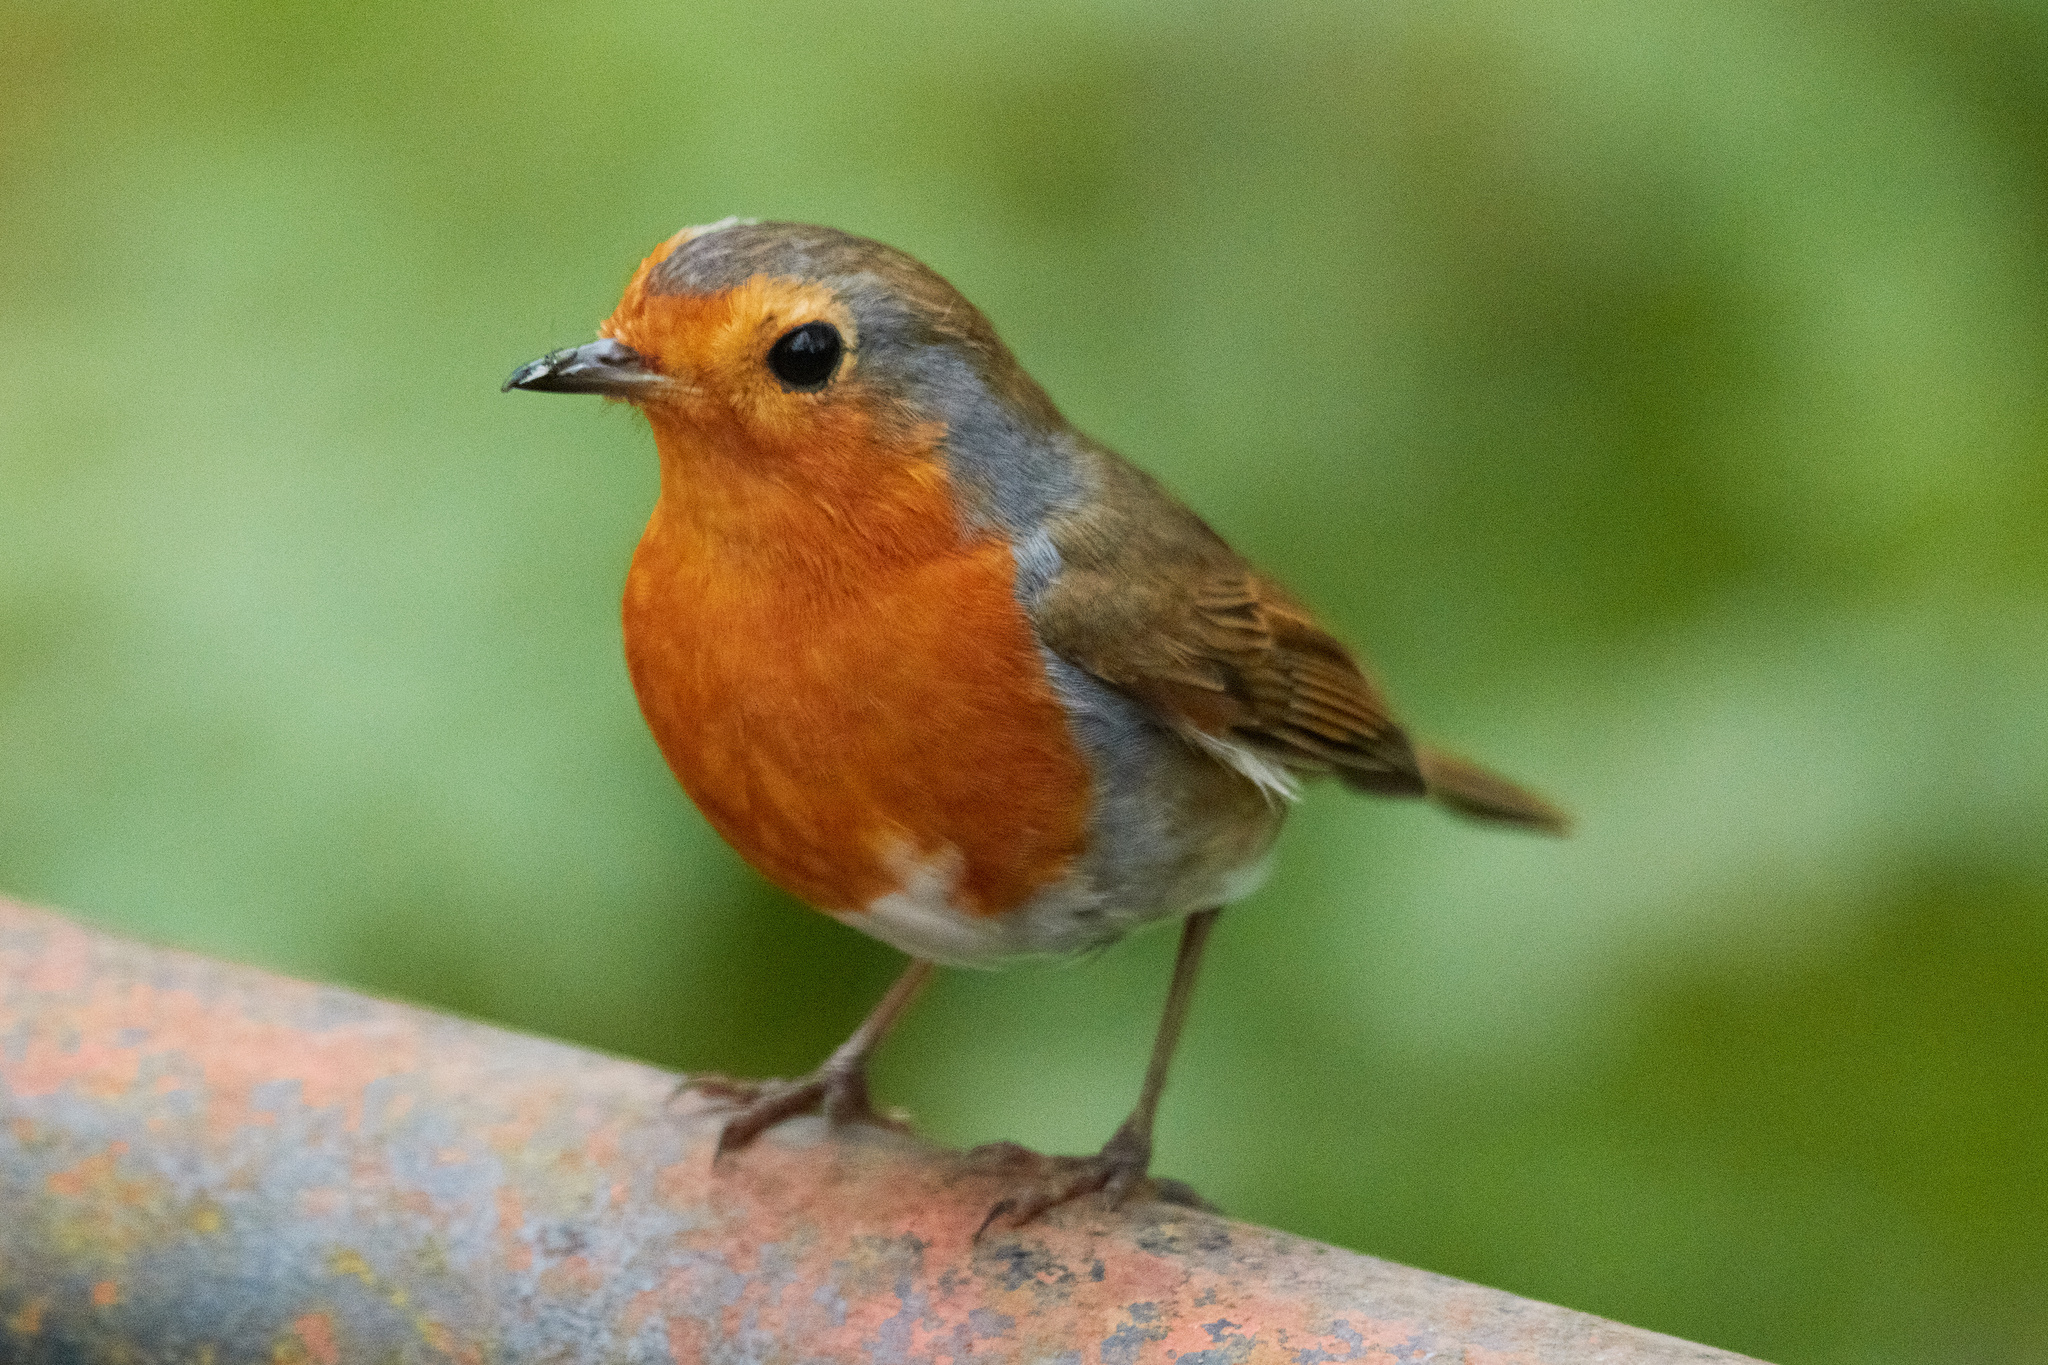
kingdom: Animalia
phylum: Chordata
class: Aves
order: Passeriformes
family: Muscicapidae
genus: Erithacus
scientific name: Erithacus rubecula
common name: European robin
